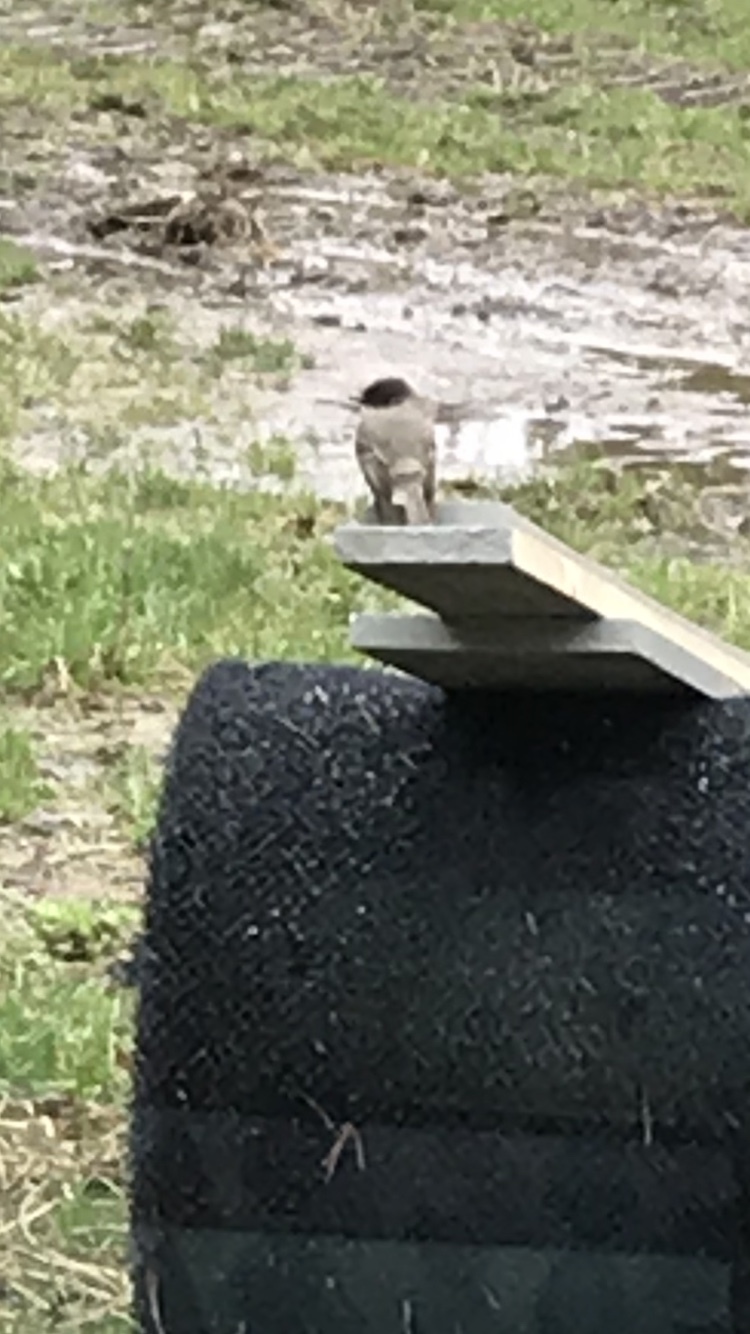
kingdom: Animalia
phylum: Chordata
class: Aves
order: Passeriformes
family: Tyrannidae
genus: Sayornis
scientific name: Sayornis phoebe
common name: Eastern phoebe
